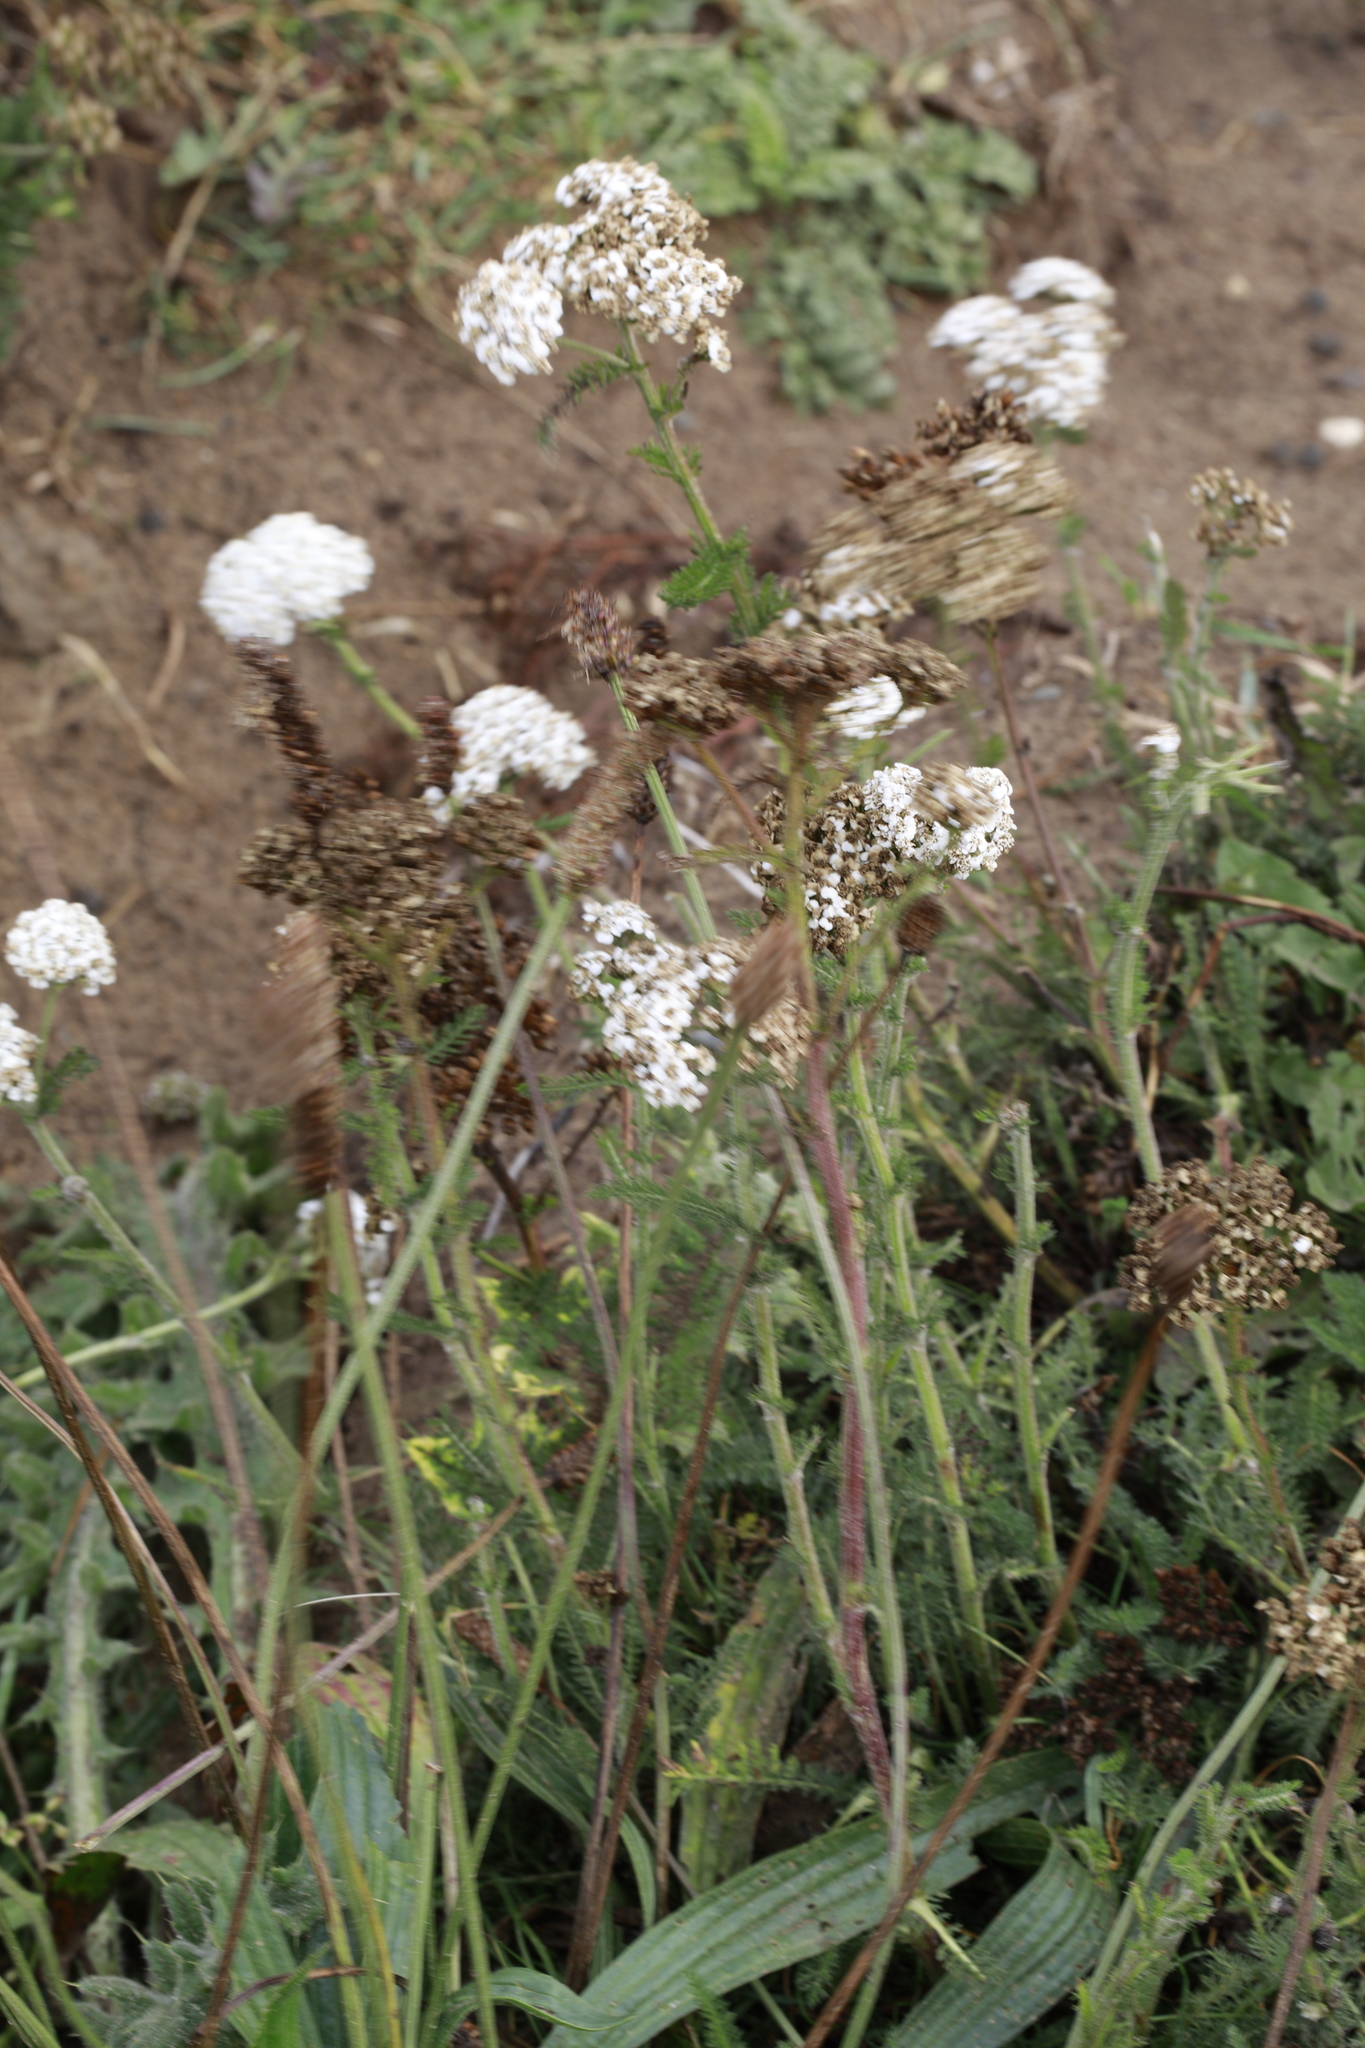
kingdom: Plantae
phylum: Tracheophyta
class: Magnoliopsida
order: Asterales
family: Asteraceae
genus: Achillea
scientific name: Achillea millefolium
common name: Yarrow
